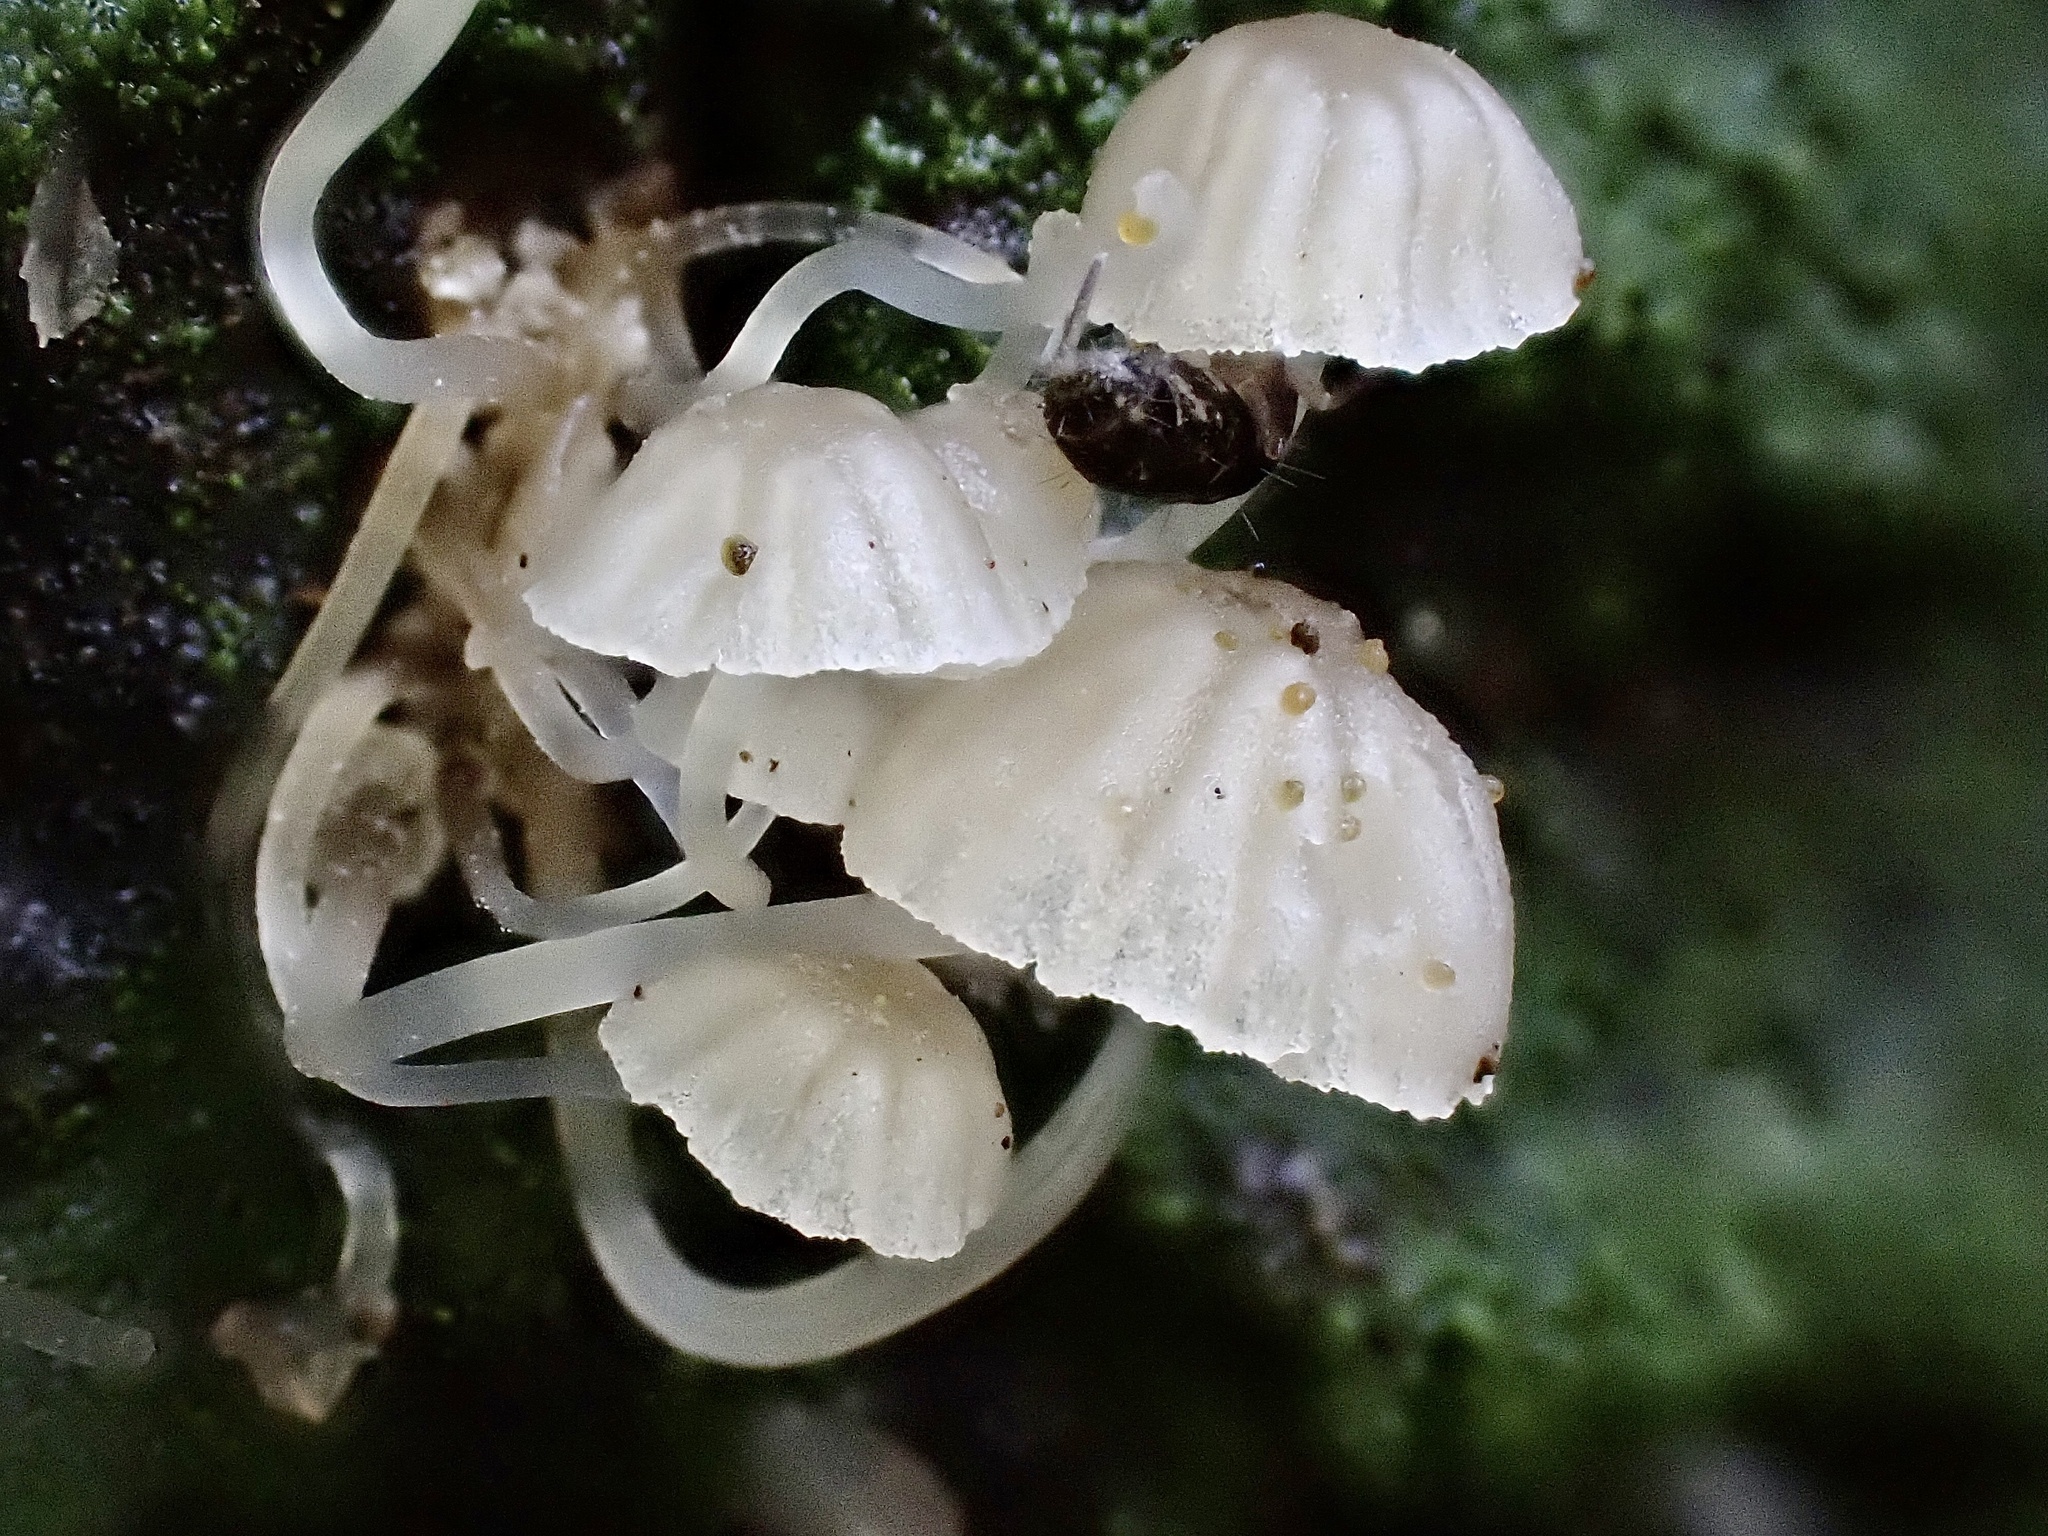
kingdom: Fungi
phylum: Basidiomycota
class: Agaricomycetes
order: Agaricales
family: Porotheleaceae
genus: Phloeomana
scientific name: Phloeomana speirea
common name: Bark bonnet
